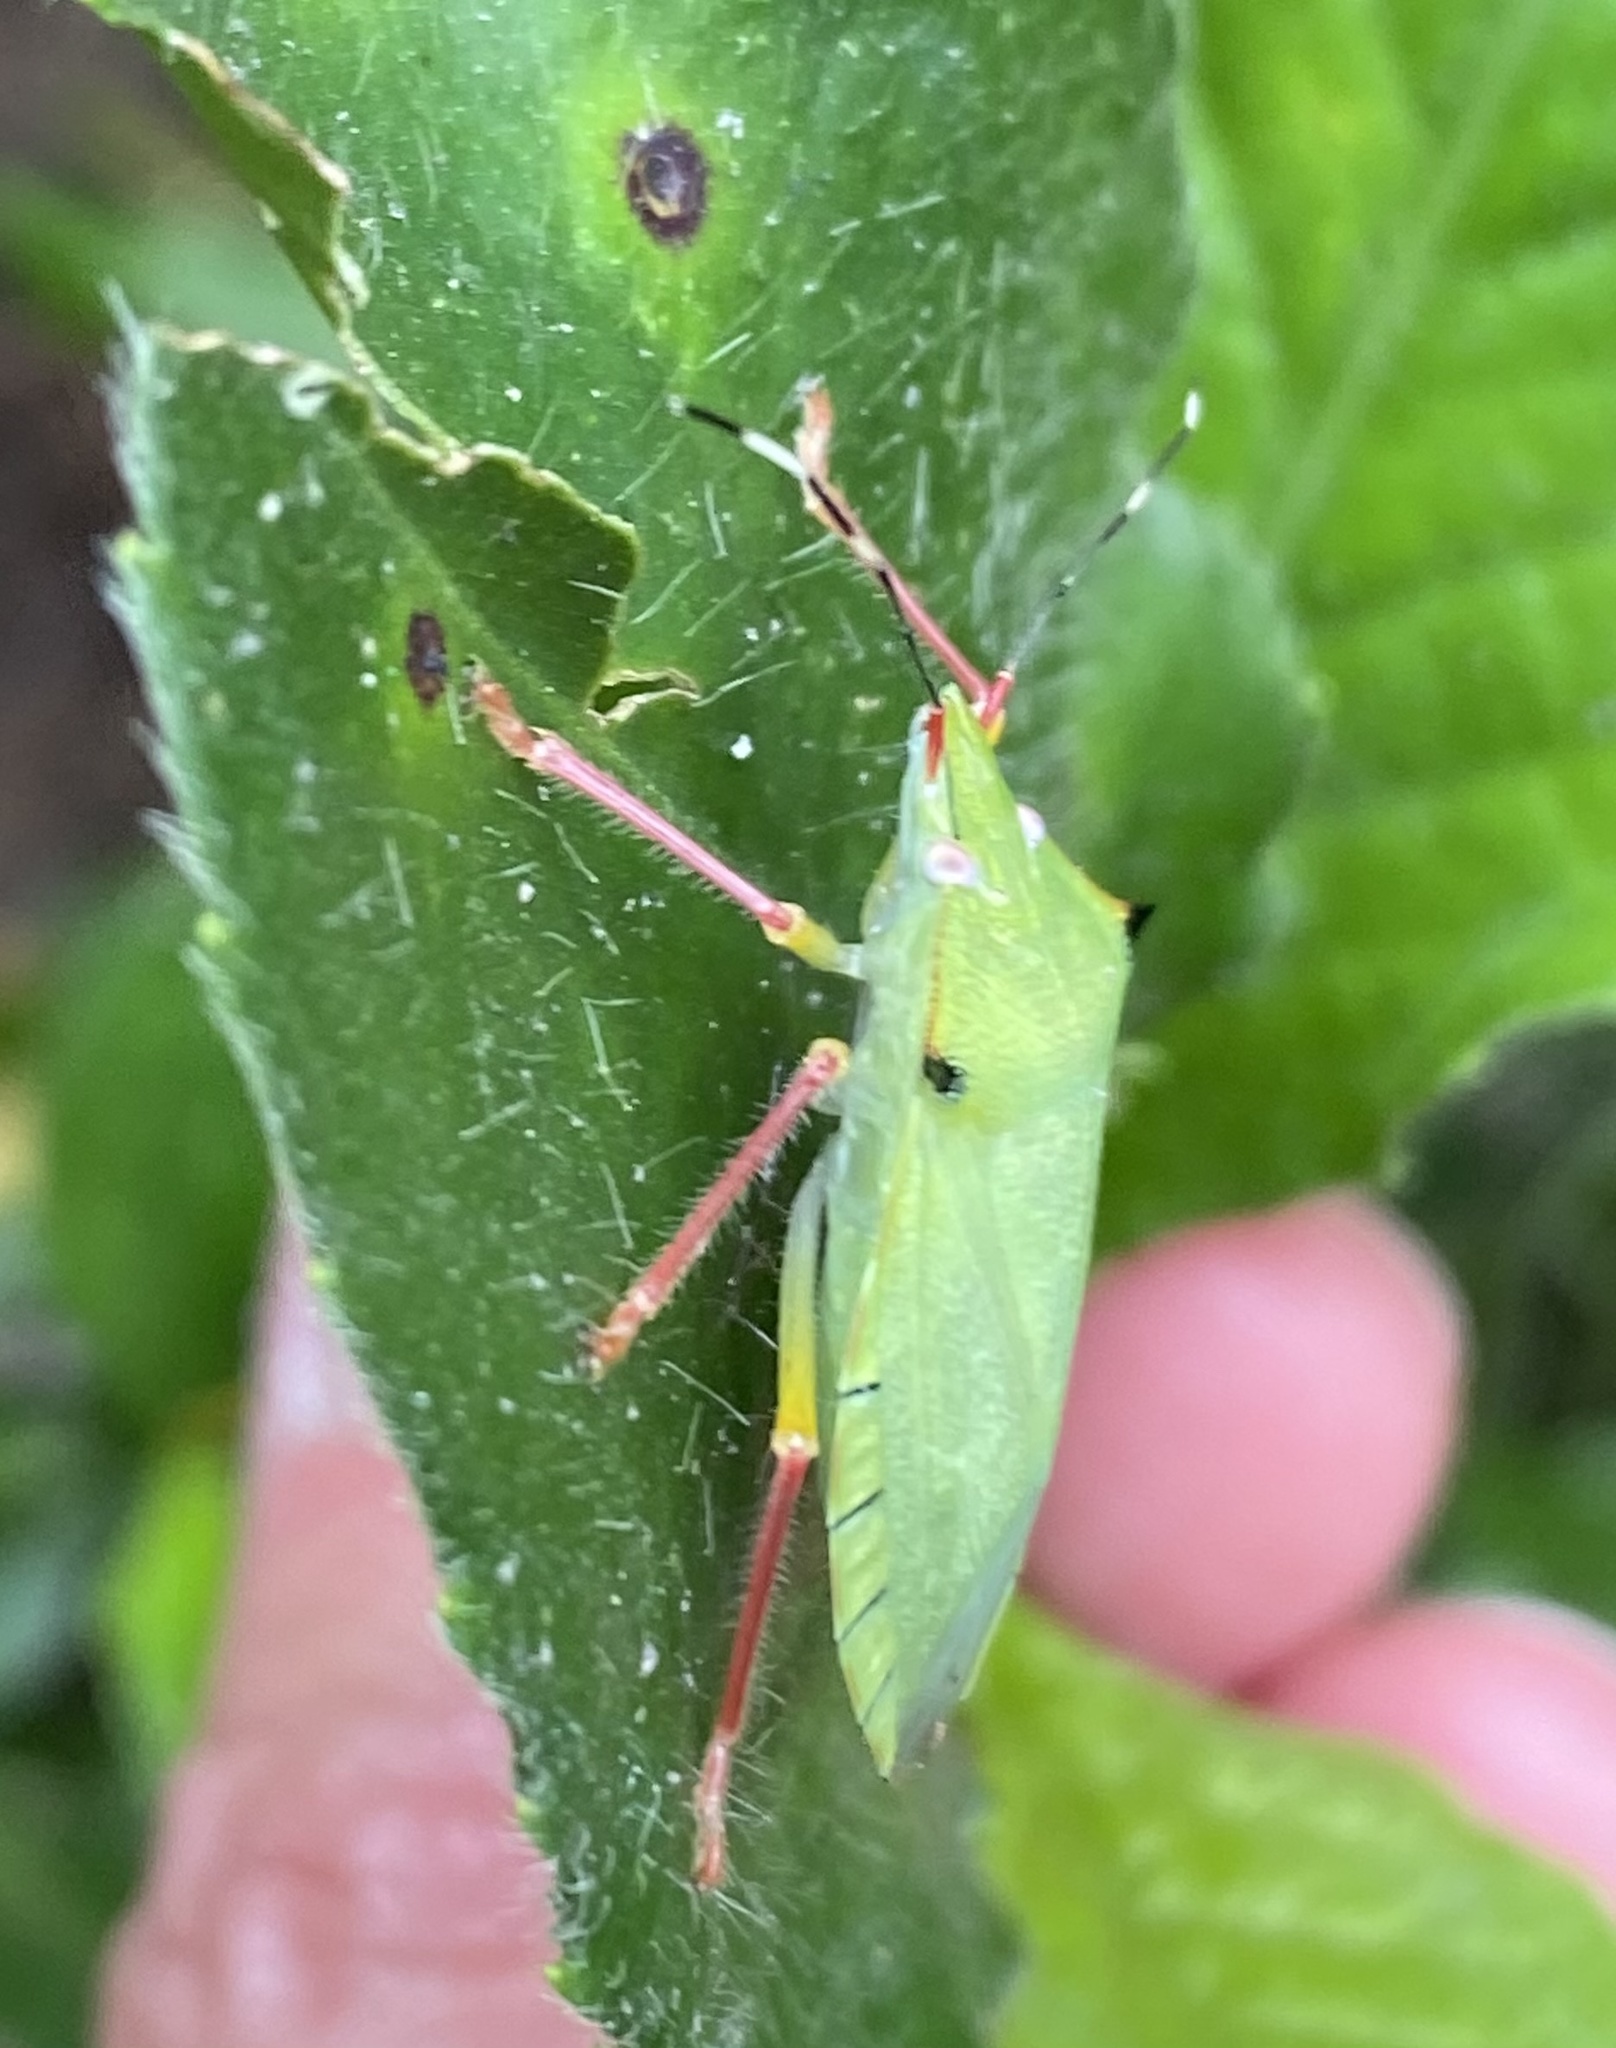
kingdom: Animalia
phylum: Arthropoda
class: Insecta
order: Hemiptera
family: Pentatomidae
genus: Chlorocoris
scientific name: Chlorocoris distinctus
